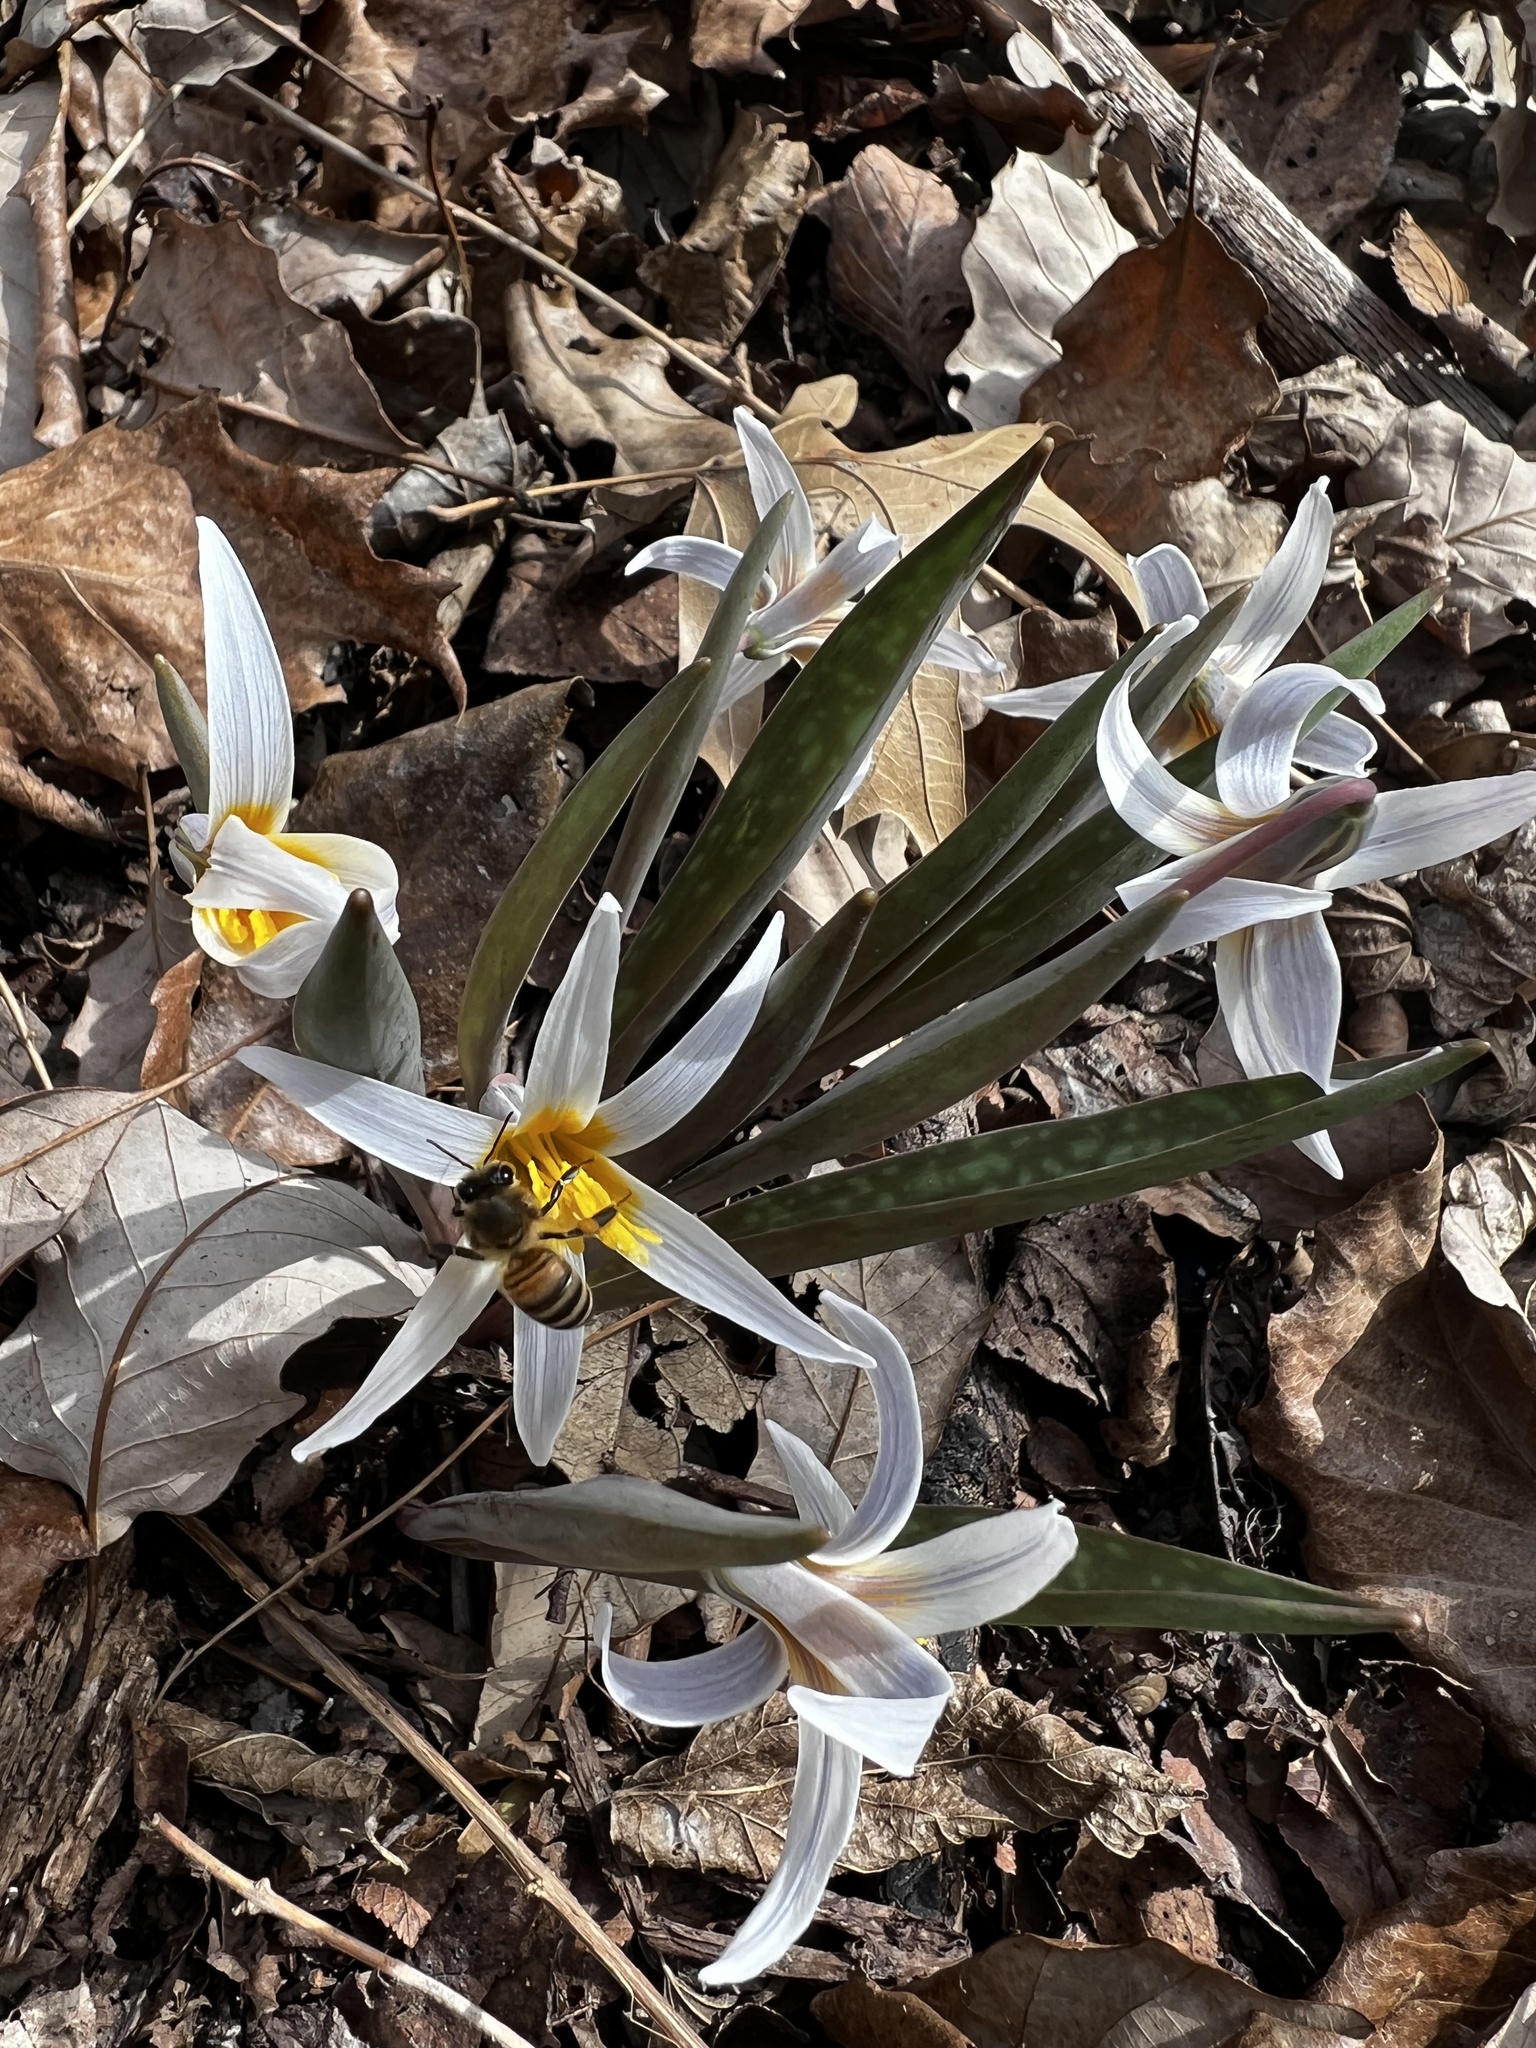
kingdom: Plantae
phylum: Tracheophyta
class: Liliopsida
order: Liliales
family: Liliaceae
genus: Erythronium
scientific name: Erythronium albidum
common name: White trout-lily
